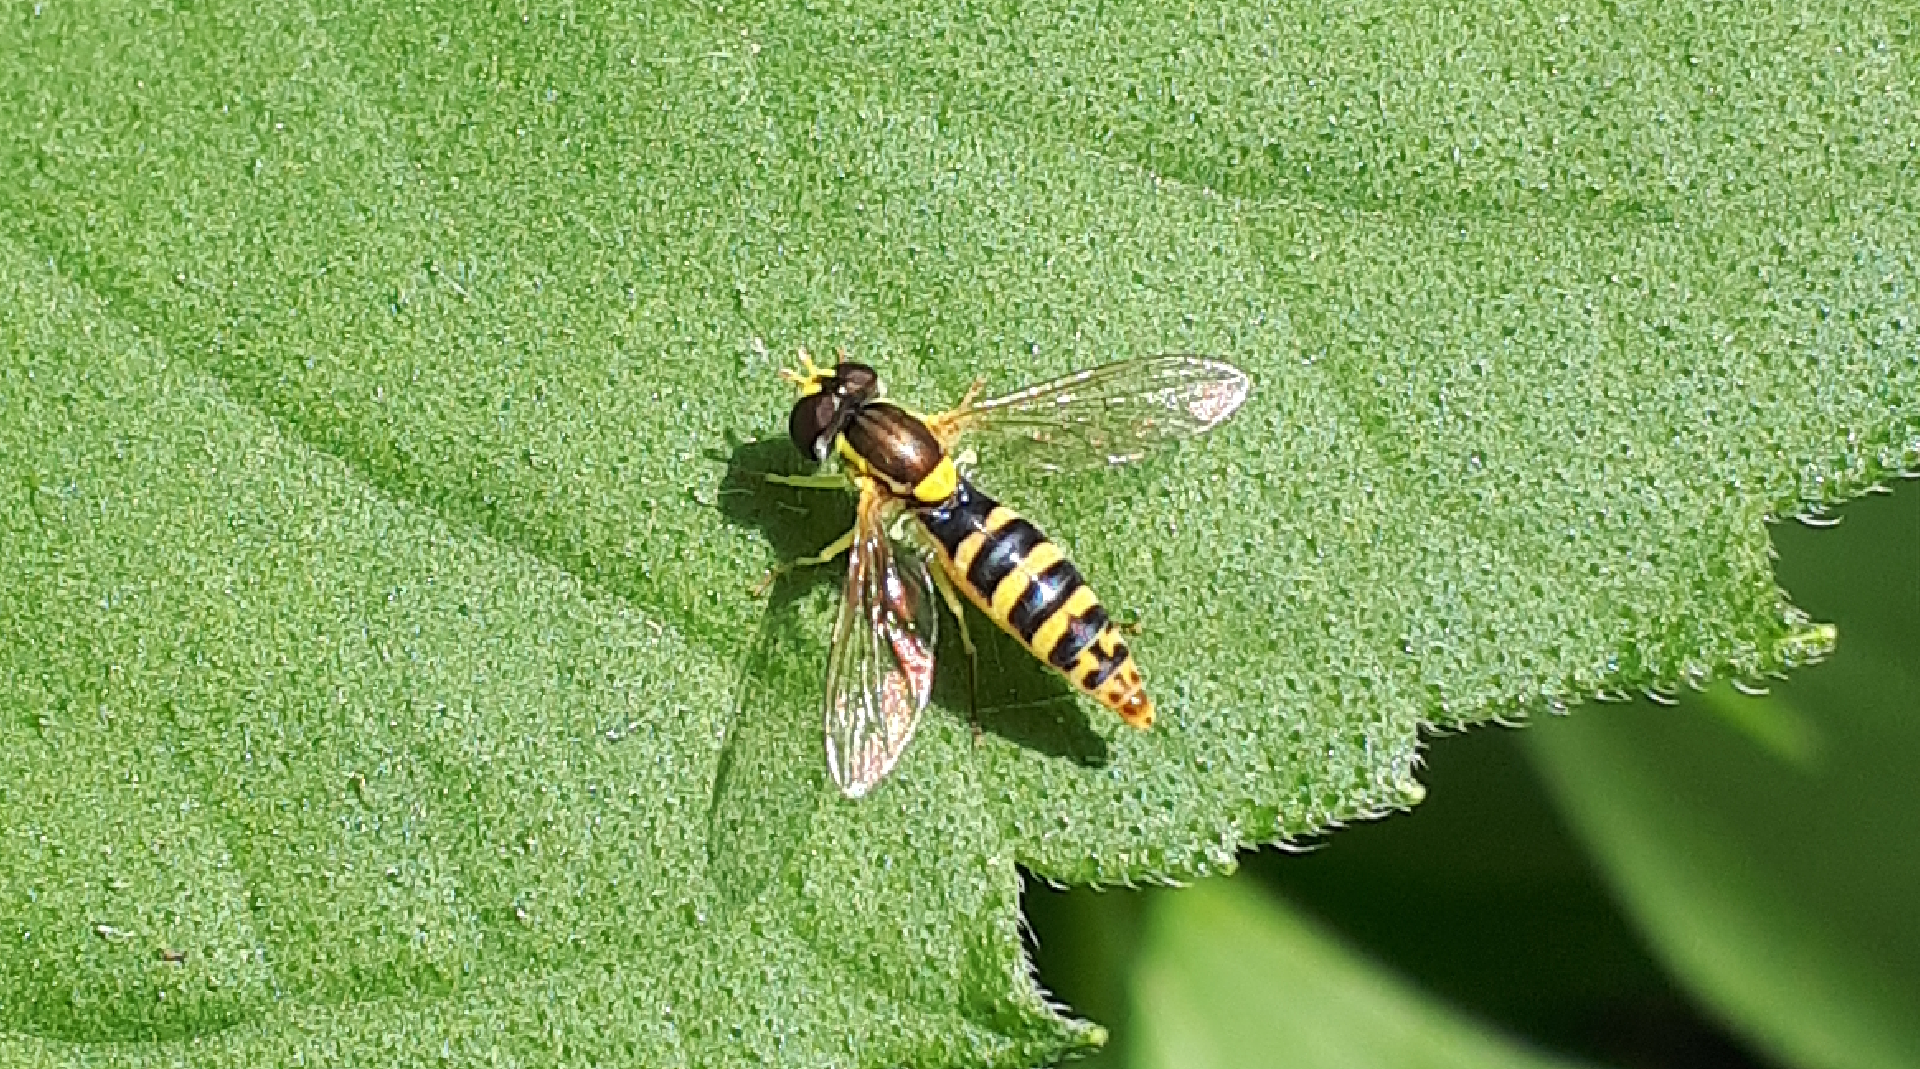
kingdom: Animalia
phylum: Arthropoda
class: Insecta
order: Diptera
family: Syrphidae
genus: Sphaerophoria
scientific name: Sphaerophoria
